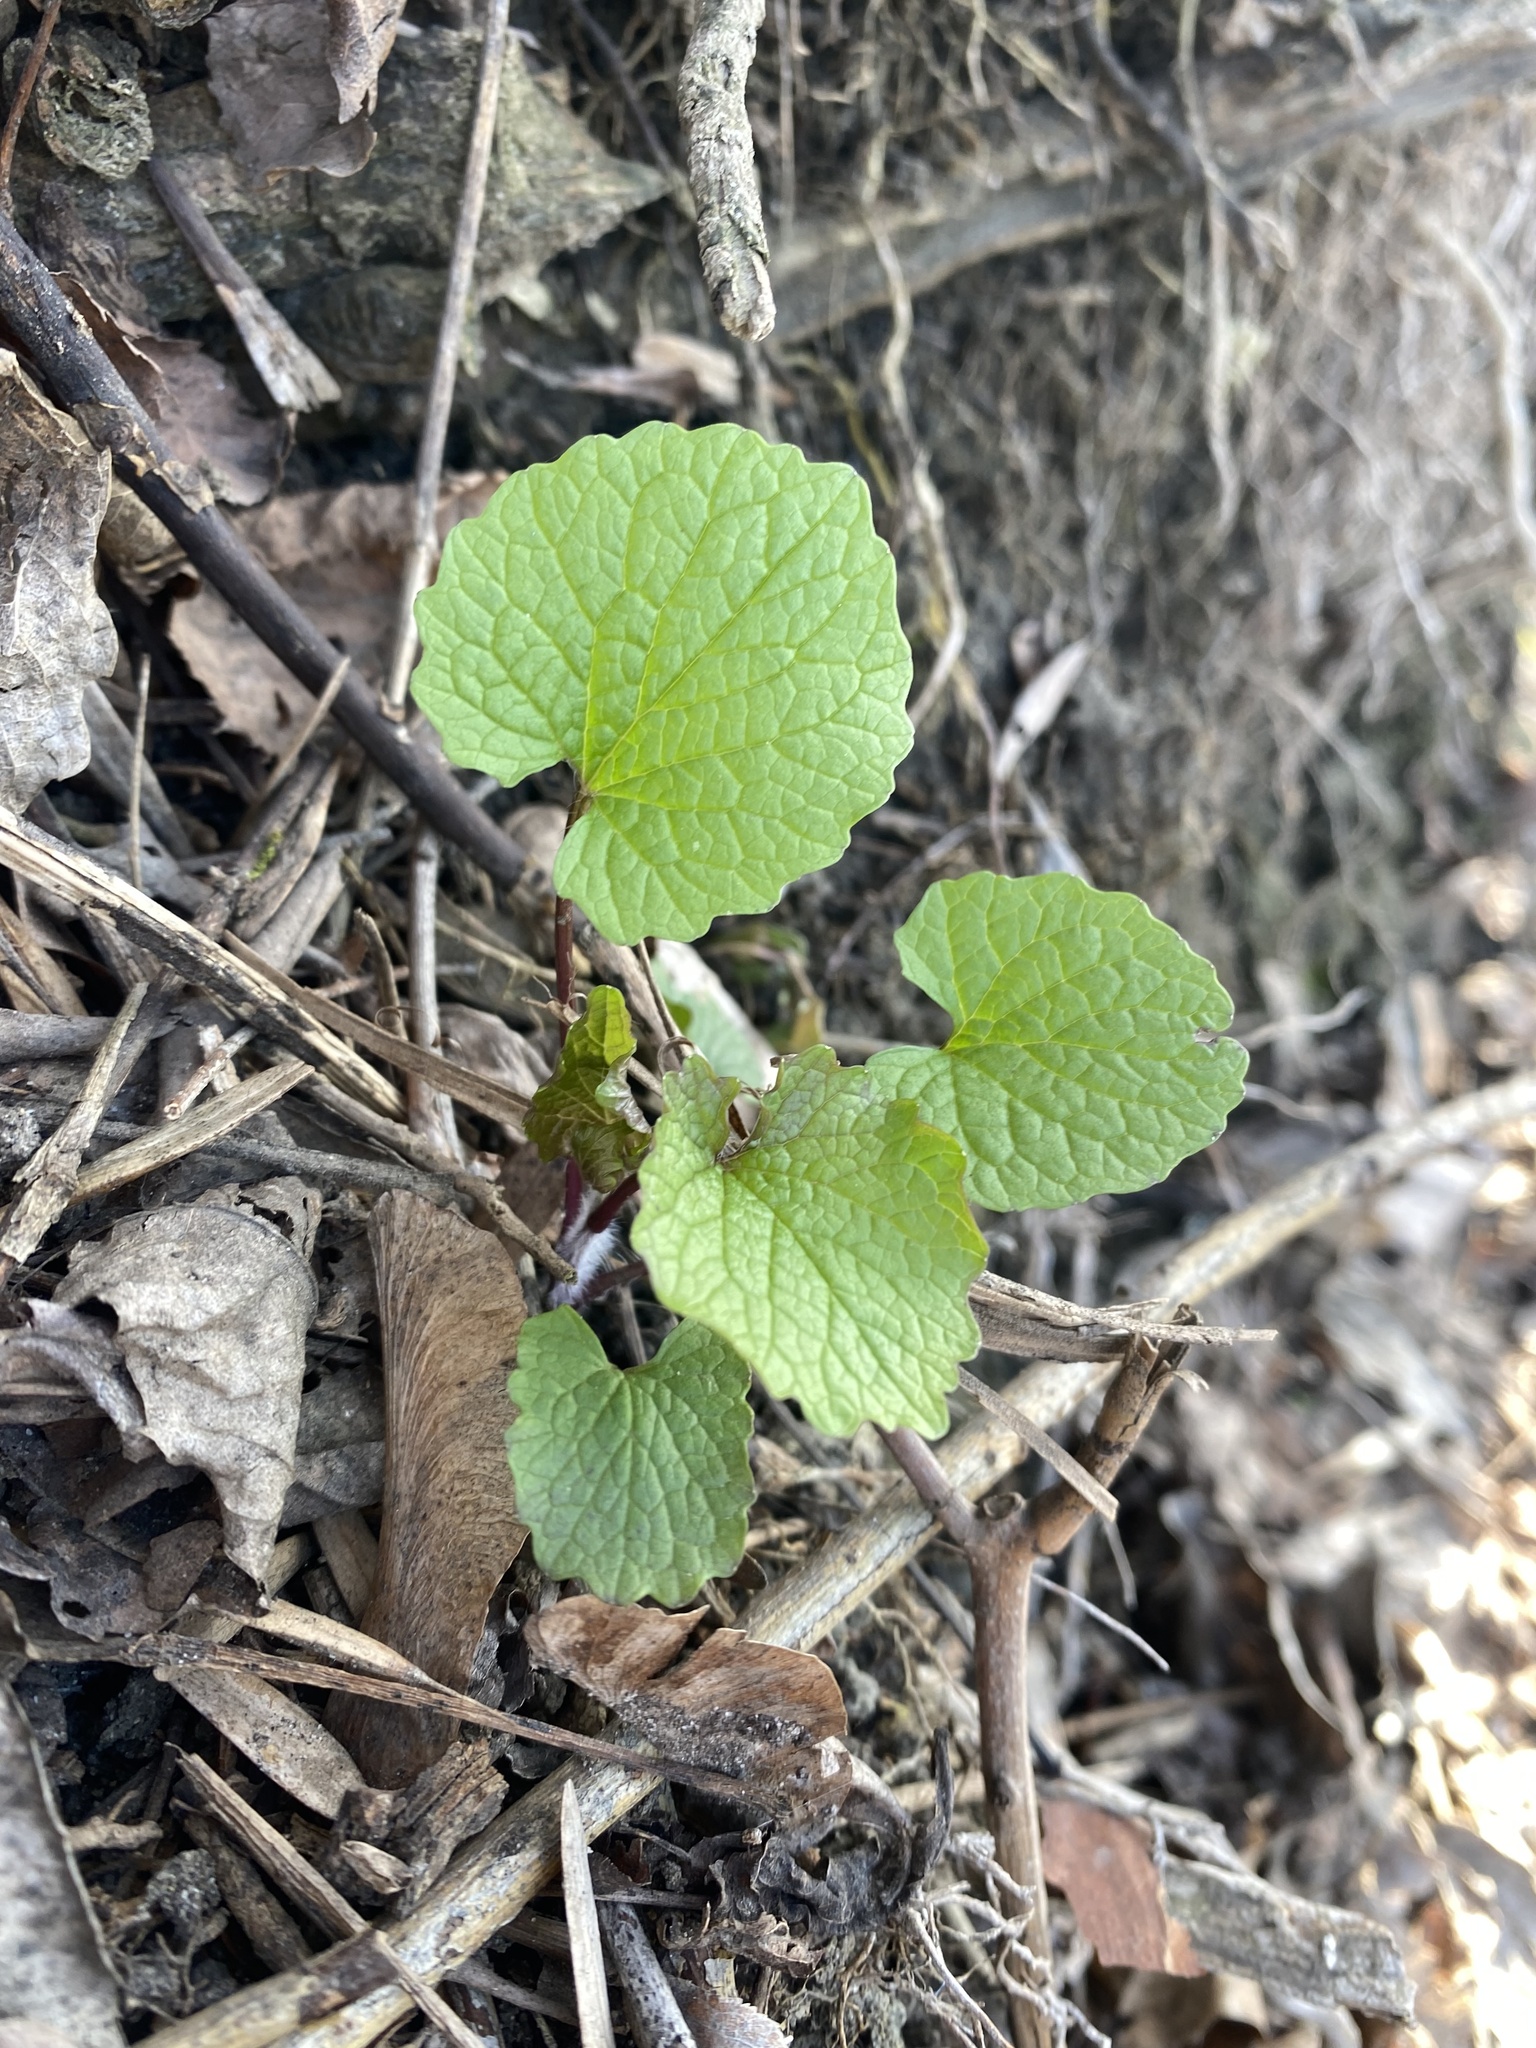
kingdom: Plantae
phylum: Tracheophyta
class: Magnoliopsida
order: Brassicales
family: Brassicaceae
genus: Alliaria
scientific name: Alliaria petiolata
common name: Garlic mustard
